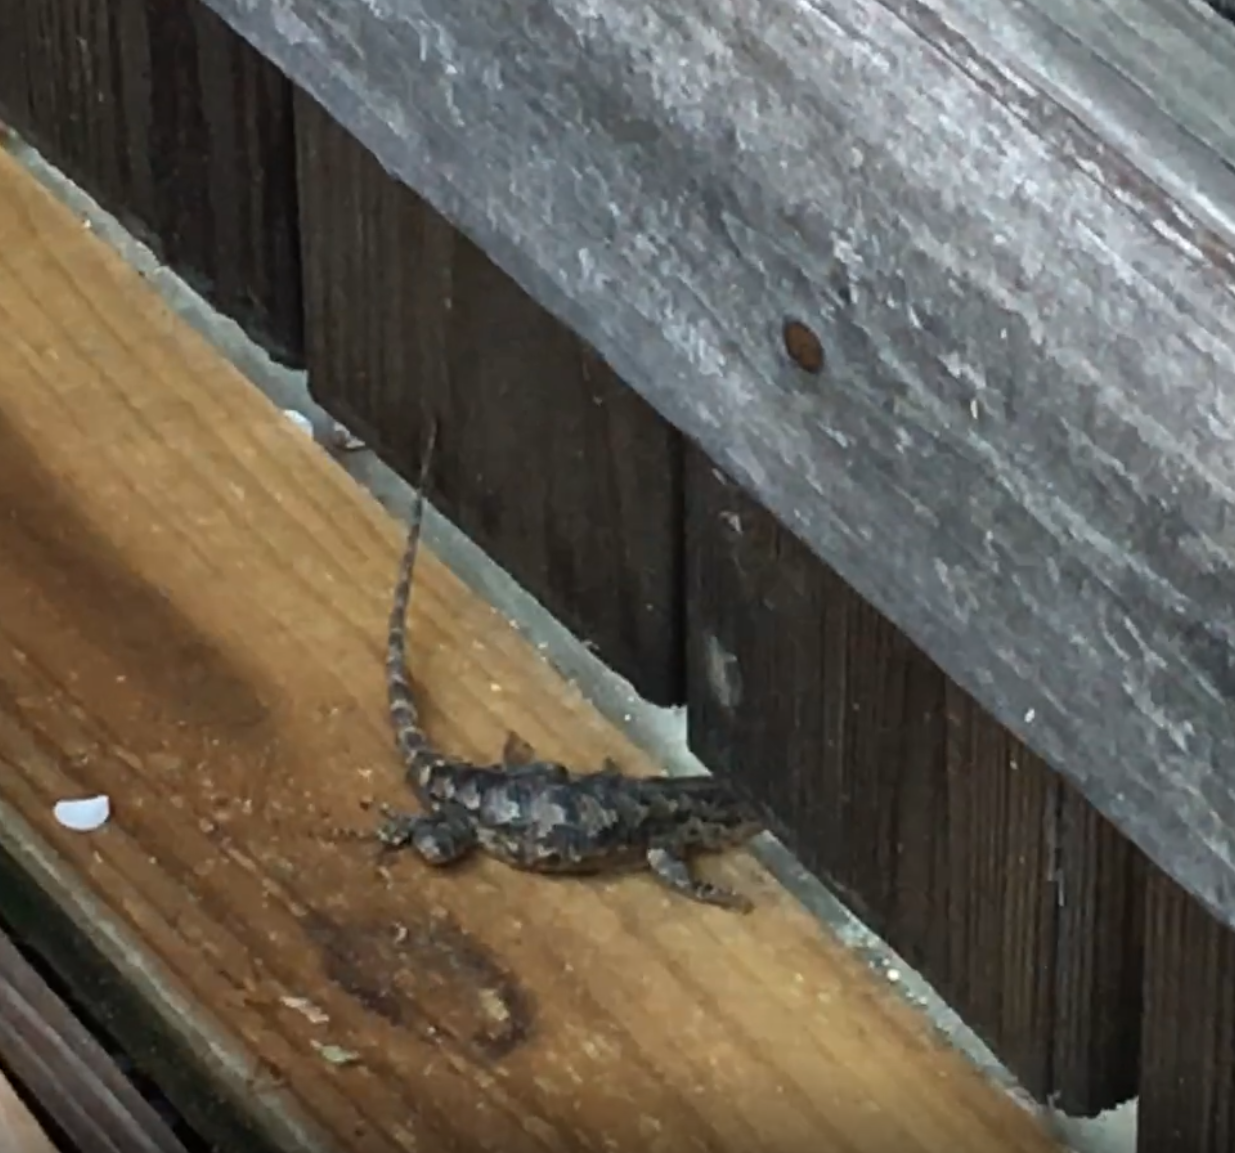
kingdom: Animalia
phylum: Chordata
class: Squamata
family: Phrynosomatidae
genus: Sceloporus
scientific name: Sceloporus undulatus
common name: Eastern fence lizard
